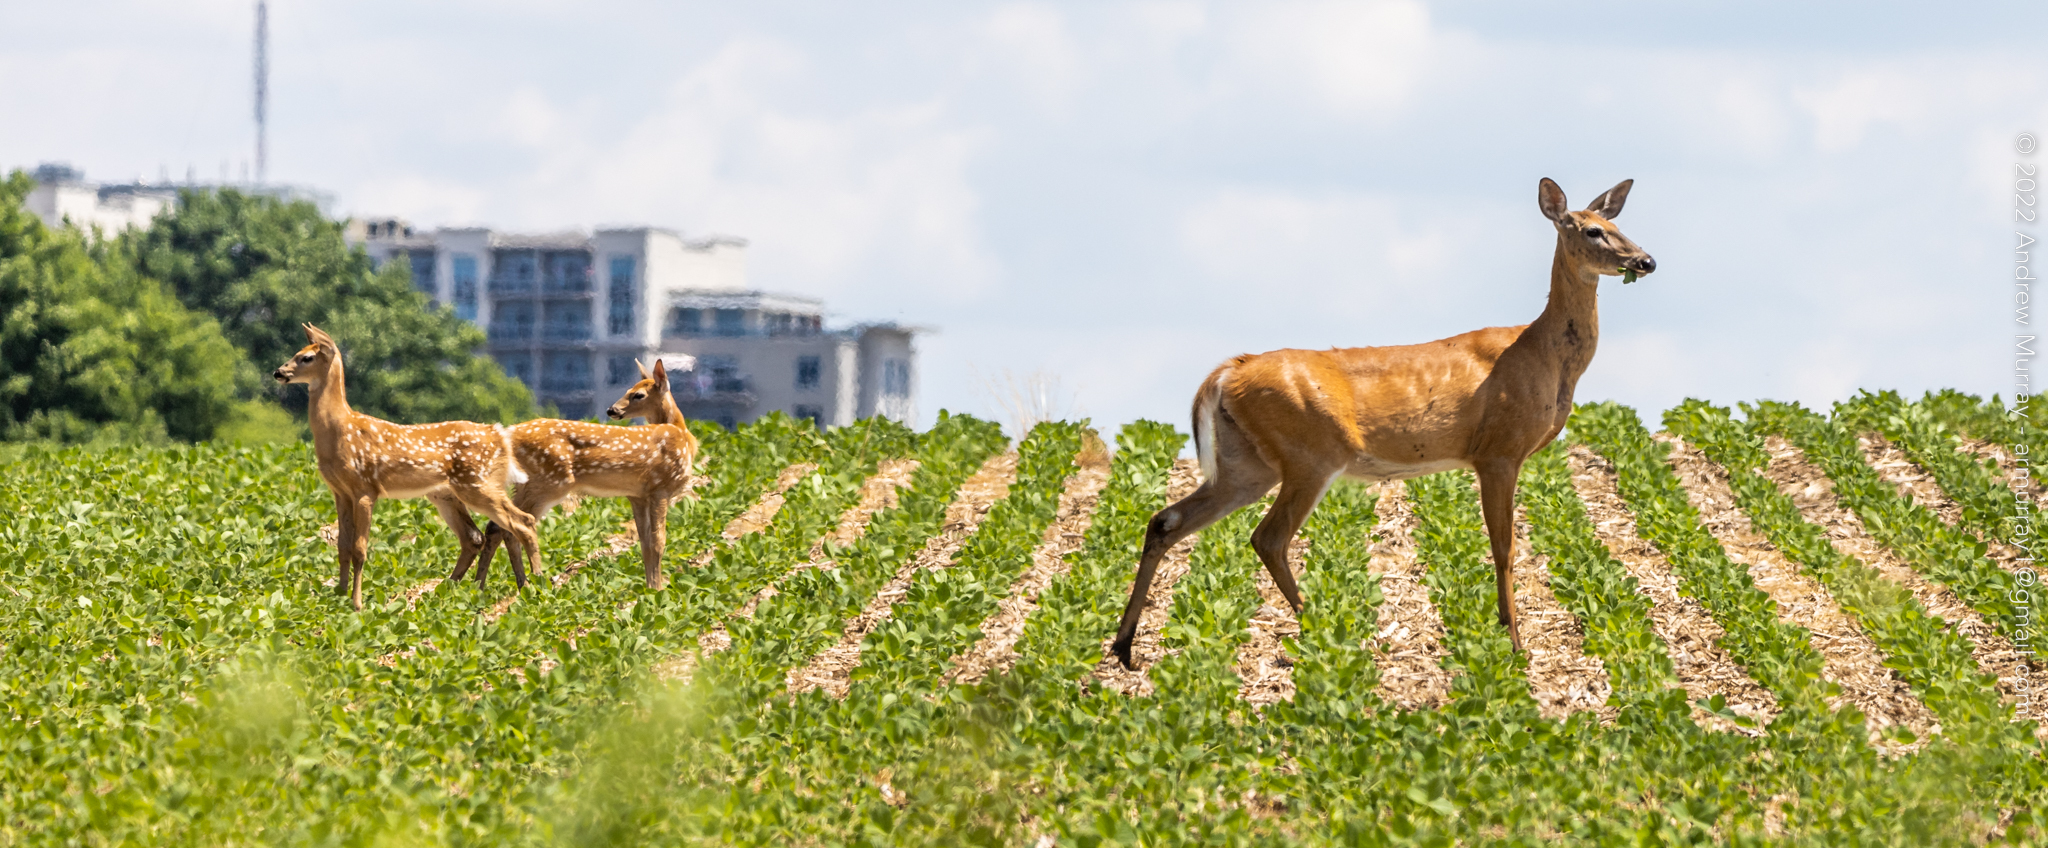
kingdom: Animalia
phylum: Chordata
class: Mammalia
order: Artiodactyla
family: Cervidae
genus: Odocoileus
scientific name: Odocoileus virginianus
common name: White-tailed deer
